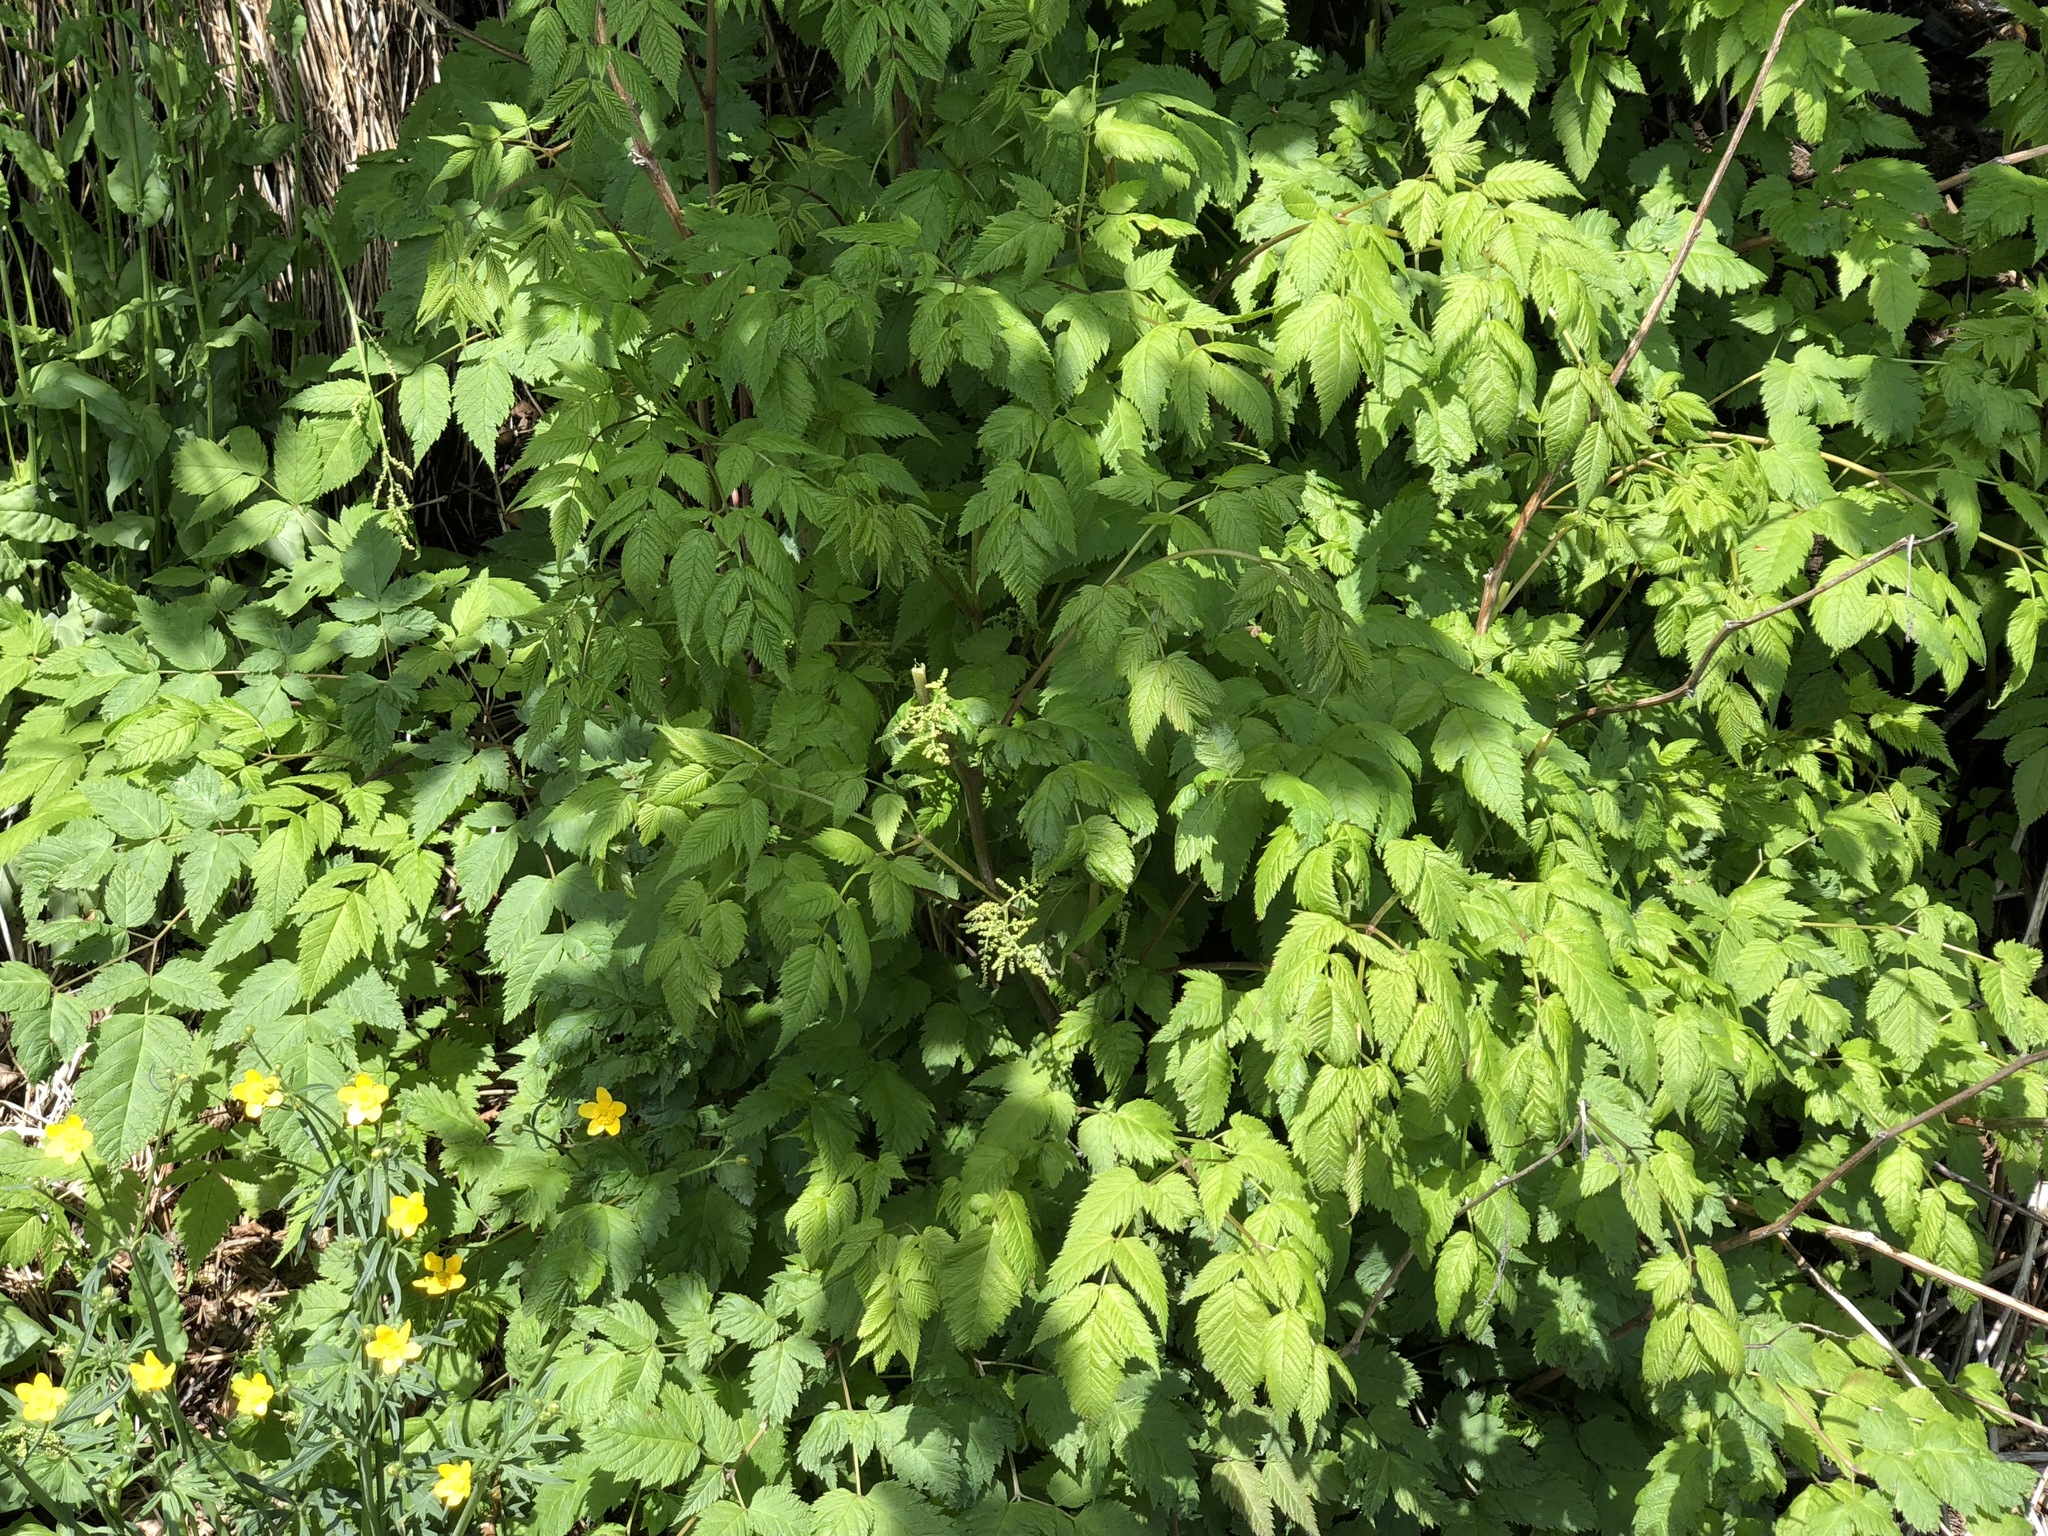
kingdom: Plantae
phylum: Tracheophyta
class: Magnoliopsida
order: Rosales
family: Rosaceae
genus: Aruncus
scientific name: Aruncus dioicus
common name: Buck's-beard
